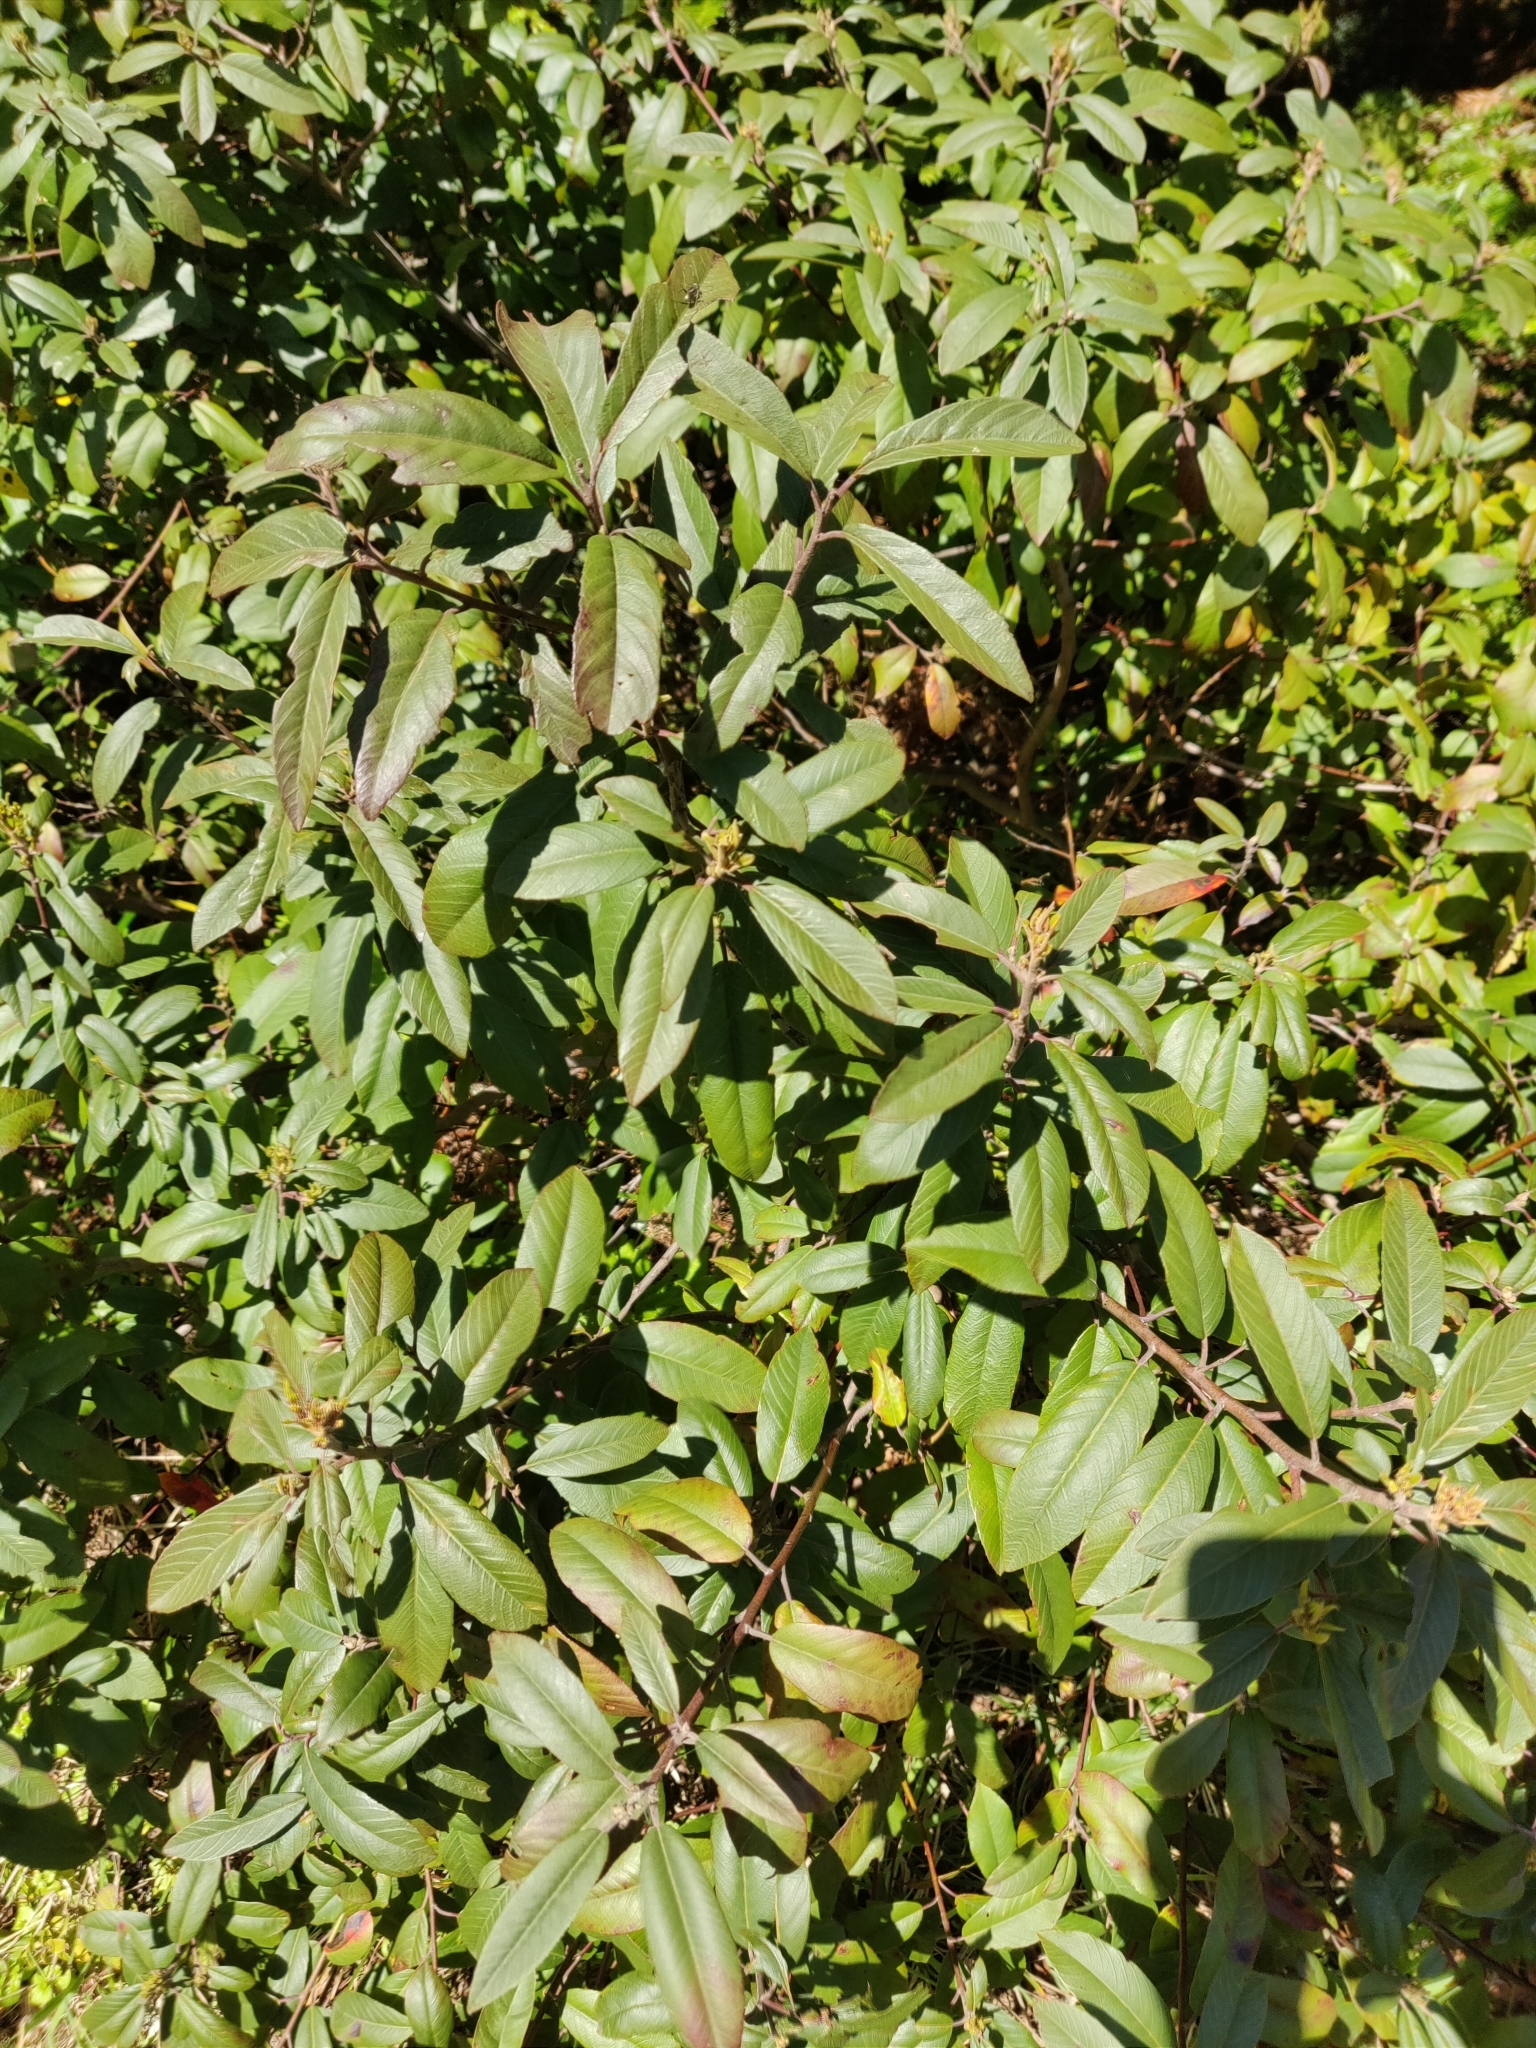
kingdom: Plantae
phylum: Tracheophyta
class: Magnoliopsida
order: Rosales
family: Rhamnaceae
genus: Frangula
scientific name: Frangula californica
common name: California buckthorn
